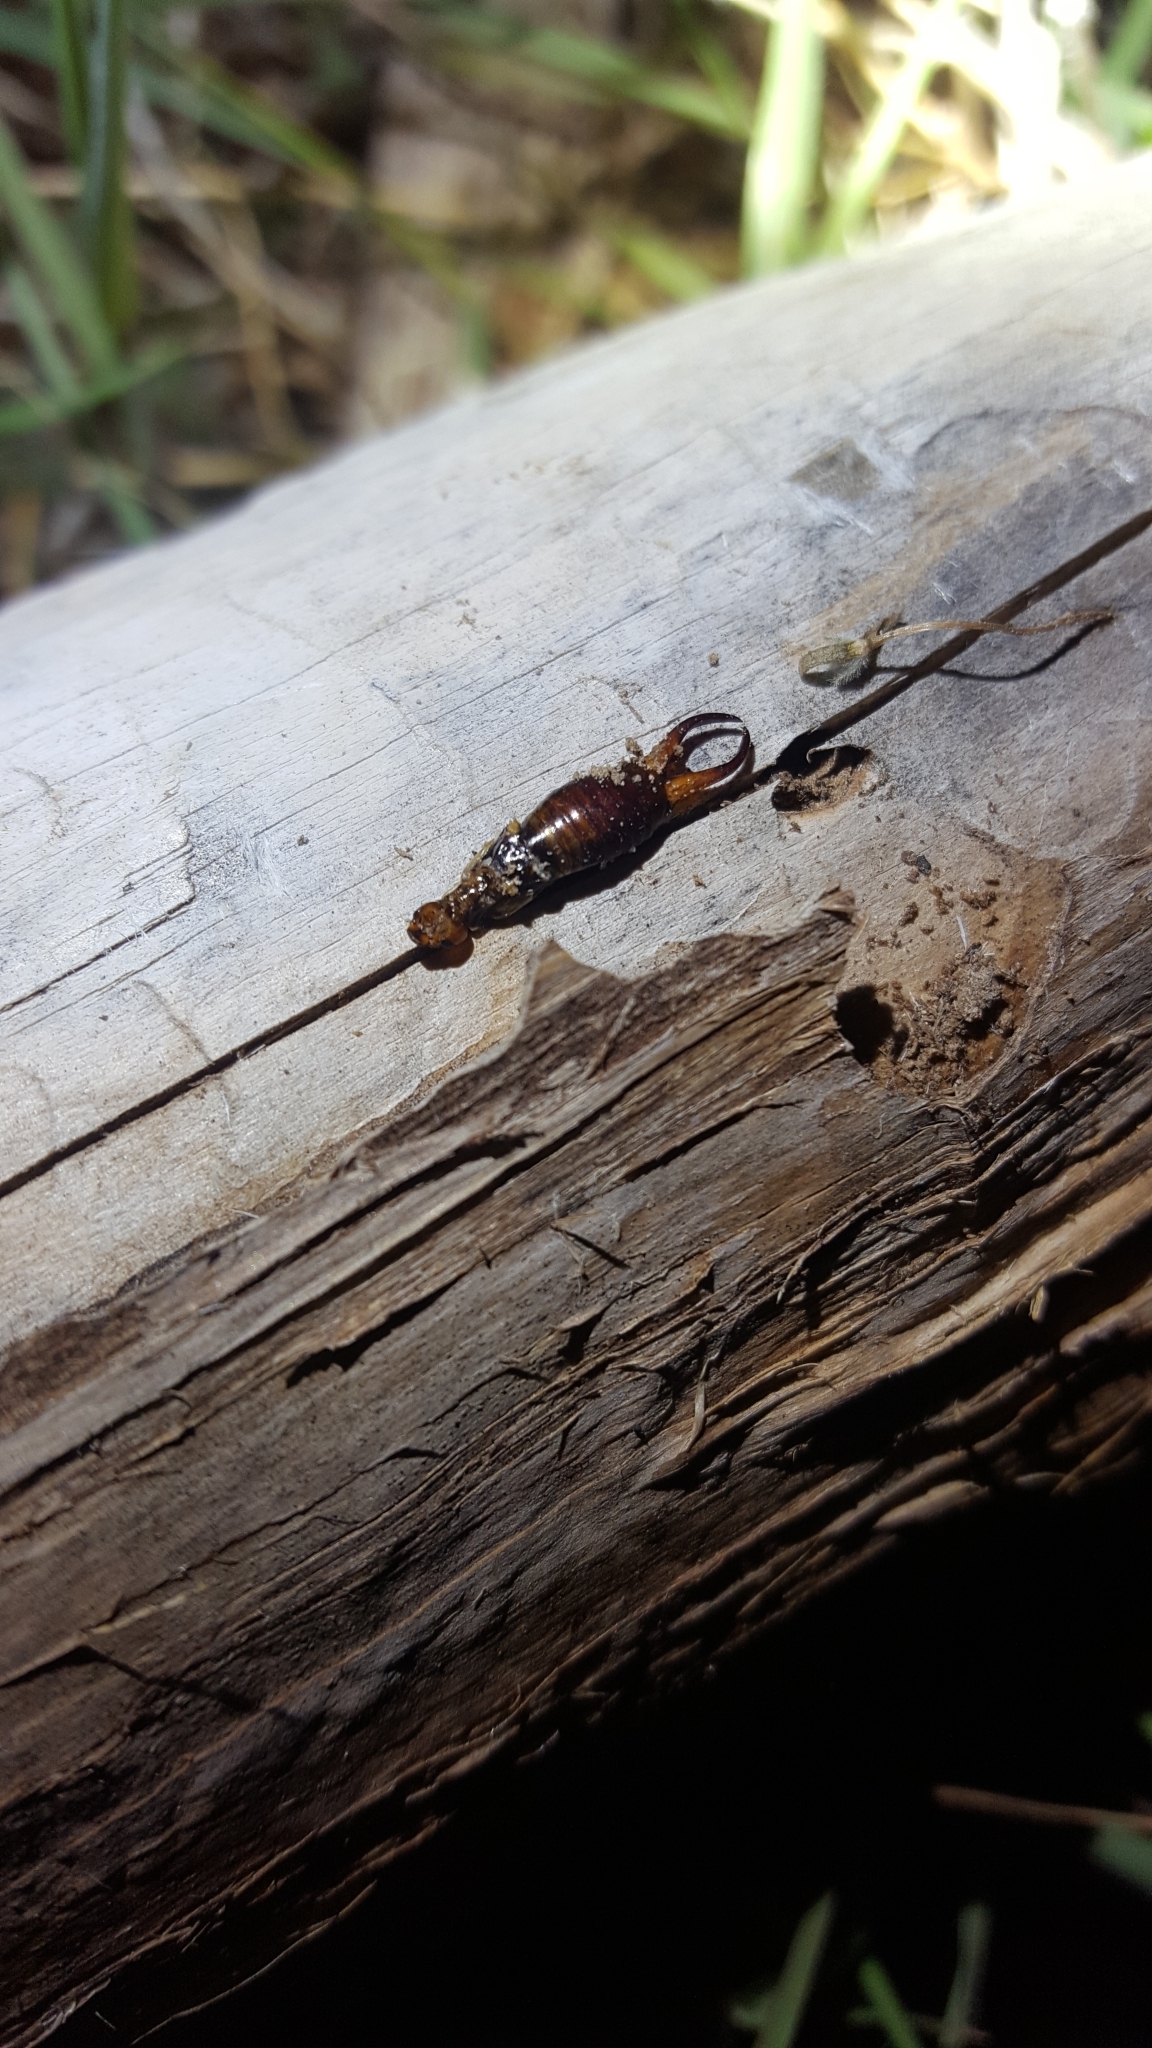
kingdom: Animalia
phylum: Arthropoda
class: Insecta
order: Dermaptera
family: Forficulidae
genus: Forficula
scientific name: Forficula
